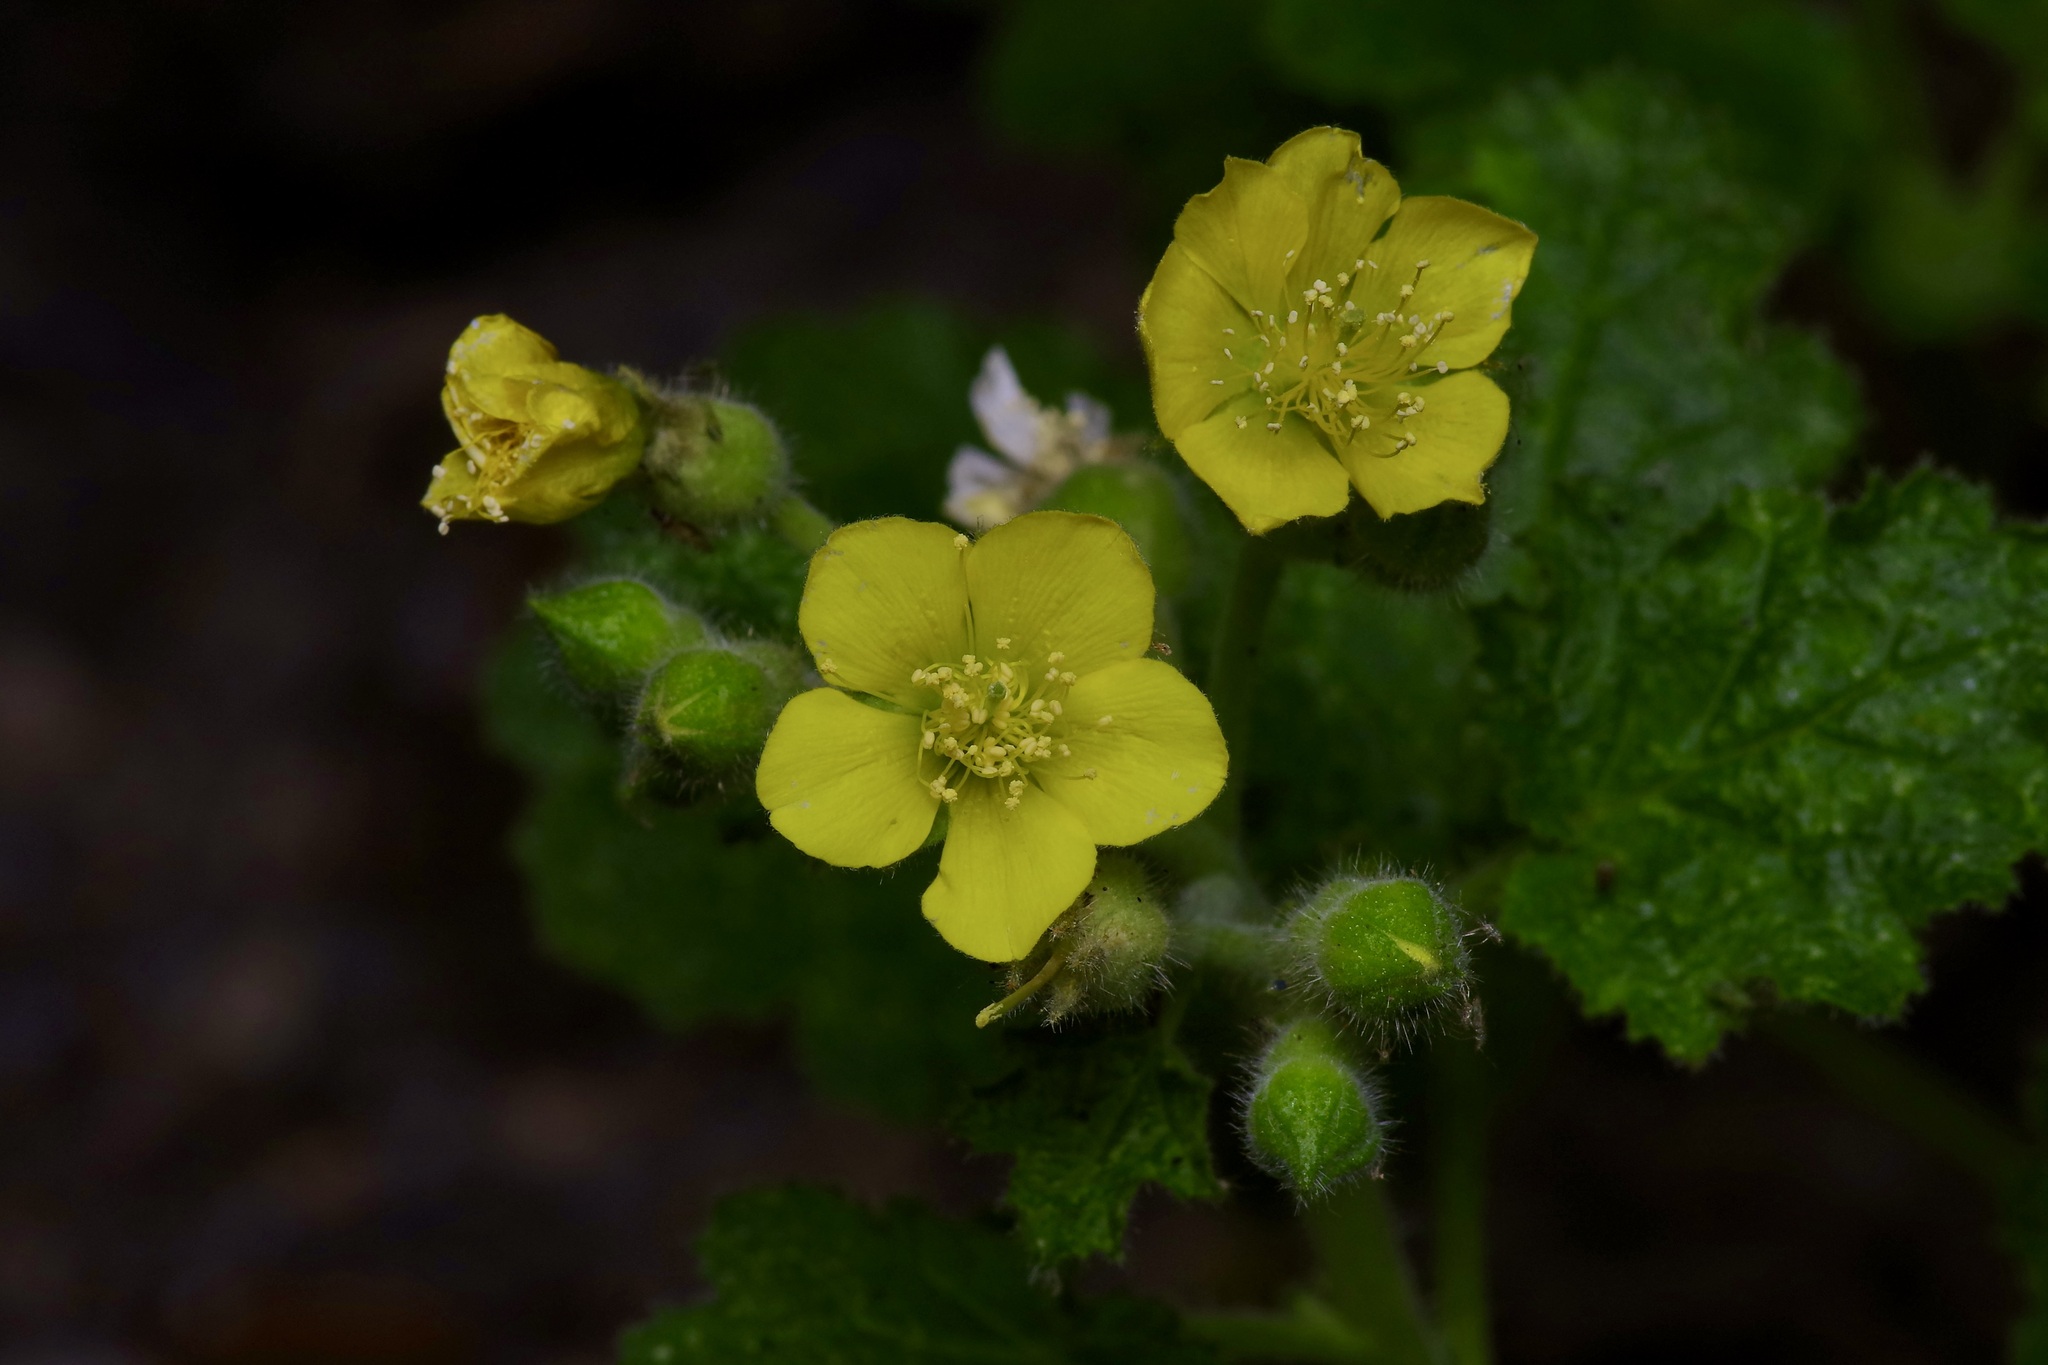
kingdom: Plantae
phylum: Tracheophyta
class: Magnoliopsida
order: Cornales
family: Loasaceae
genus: Eucnide
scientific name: Eucnide lobata
